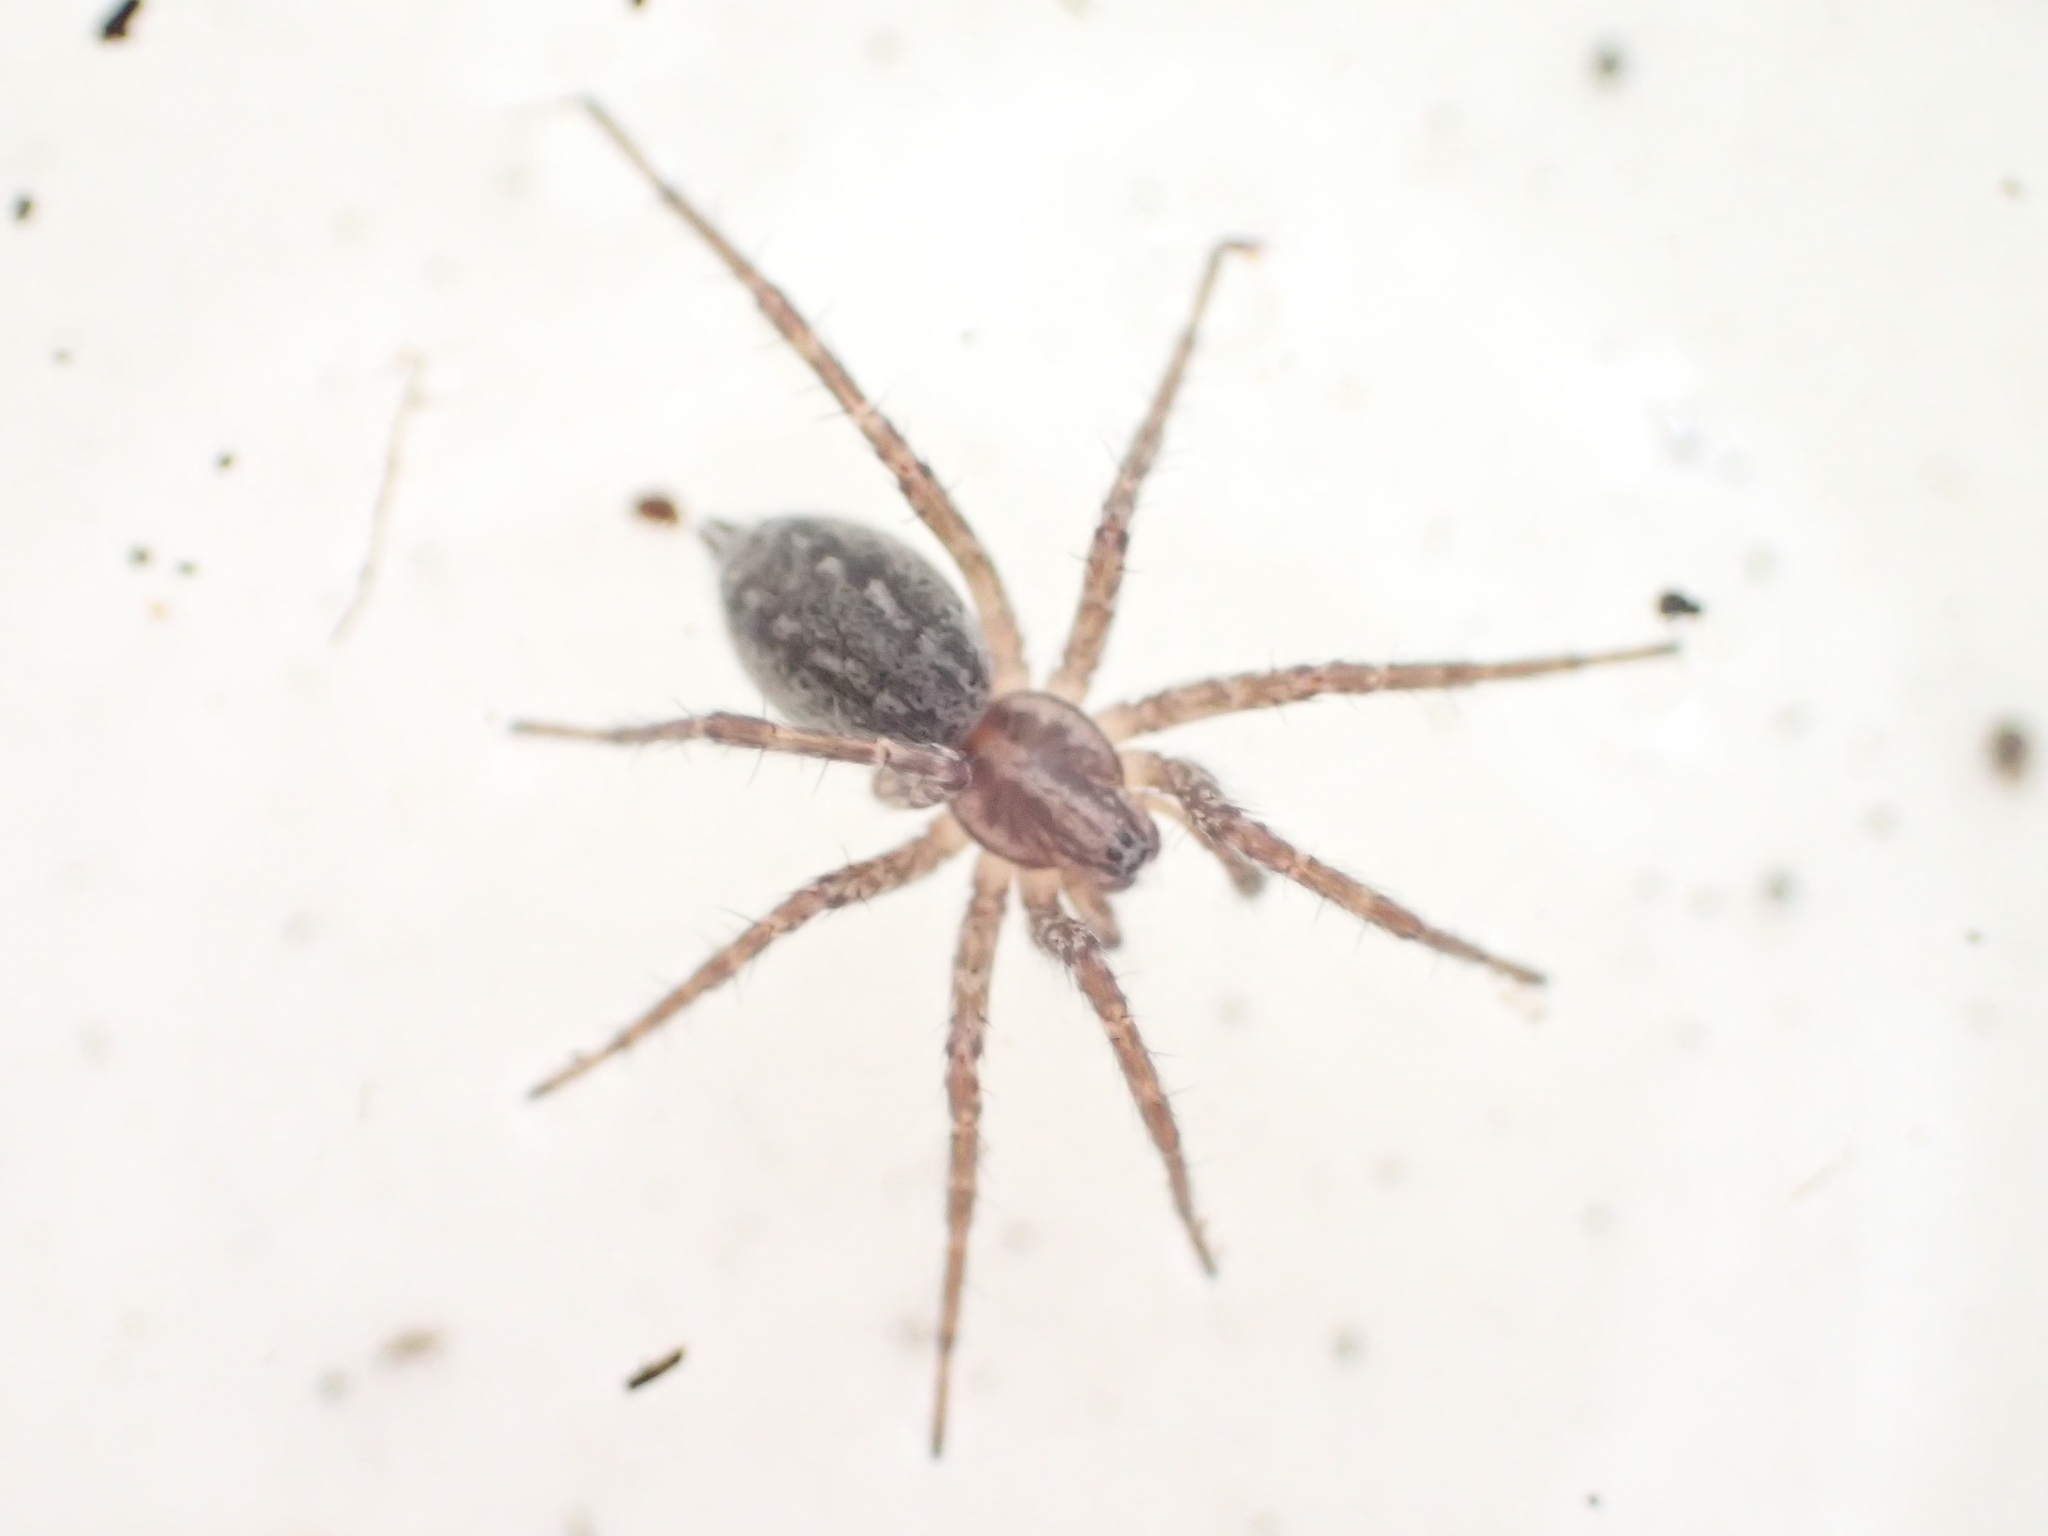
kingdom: Animalia
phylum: Arthropoda
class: Arachnida
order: Araneae
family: Agelenidae
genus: Agelenopsis
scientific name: Agelenopsis utahana
